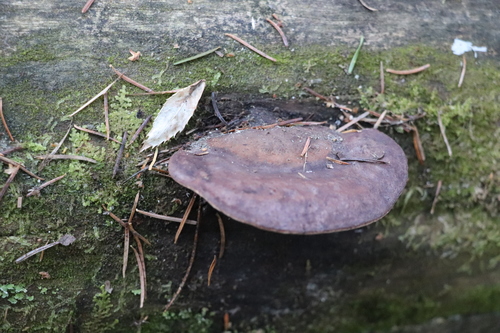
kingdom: Fungi
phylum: Basidiomycota
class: Agaricomycetes
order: Polyporales
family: Fomitopsidaceae
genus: Rhodofomes
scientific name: Rhodofomes roseus
